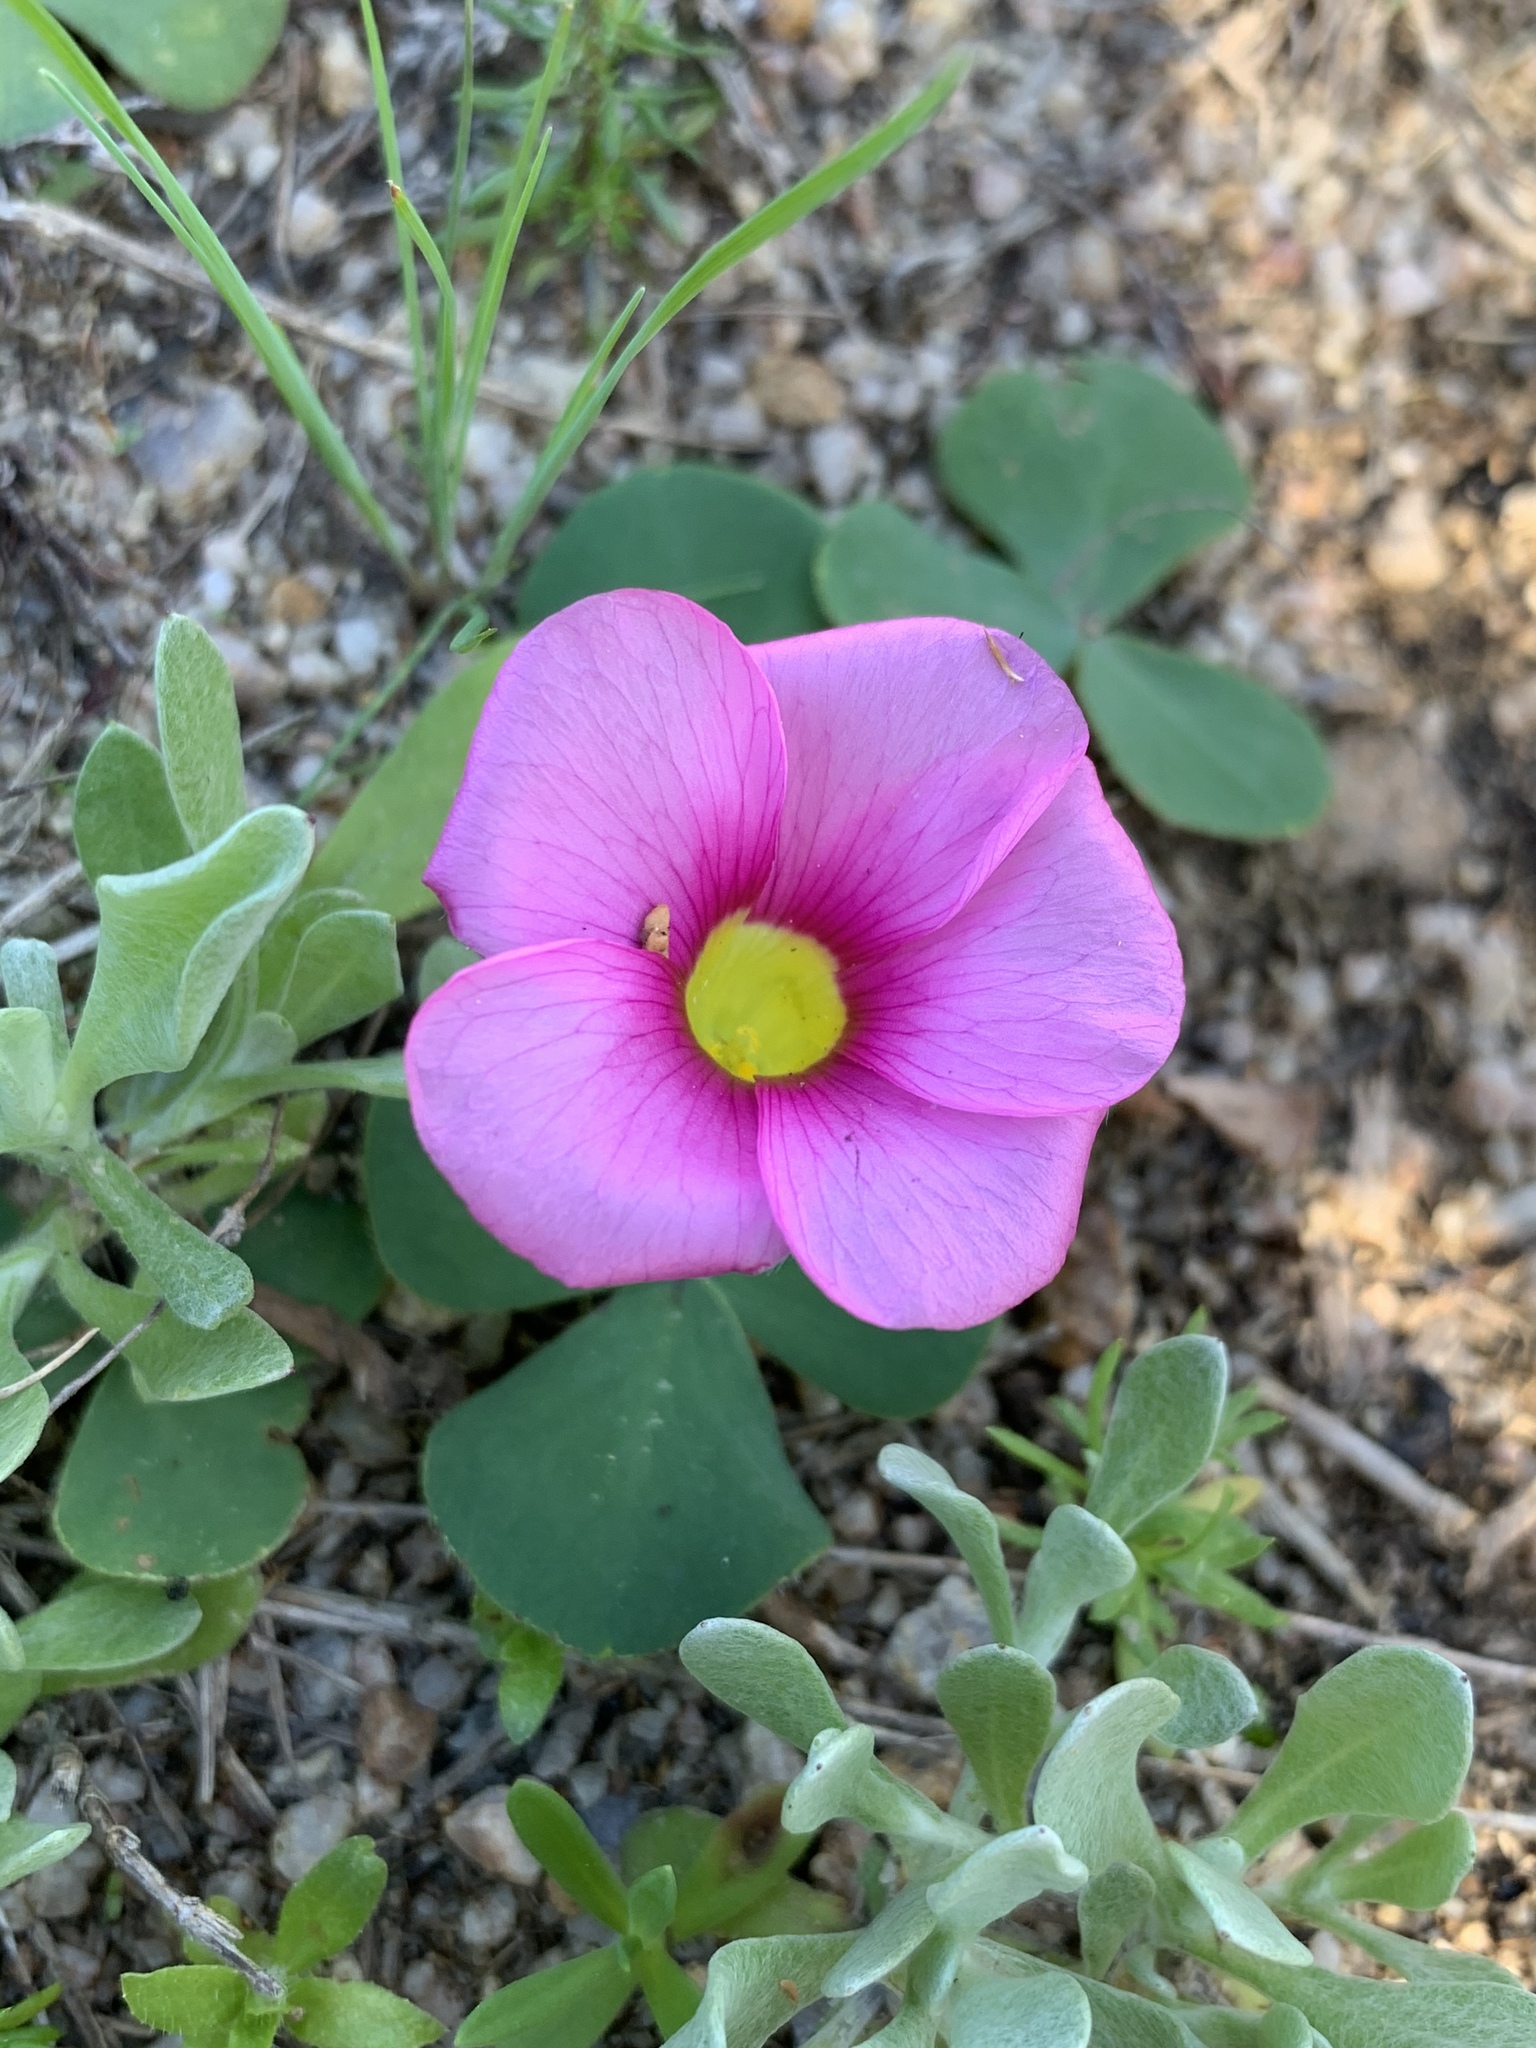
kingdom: Plantae
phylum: Tracheophyta
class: Magnoliopsida
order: Oxalidales
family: Oxalidaceae
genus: Oxalis
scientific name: Oxalis purpurea
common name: Purple woodsorrel
